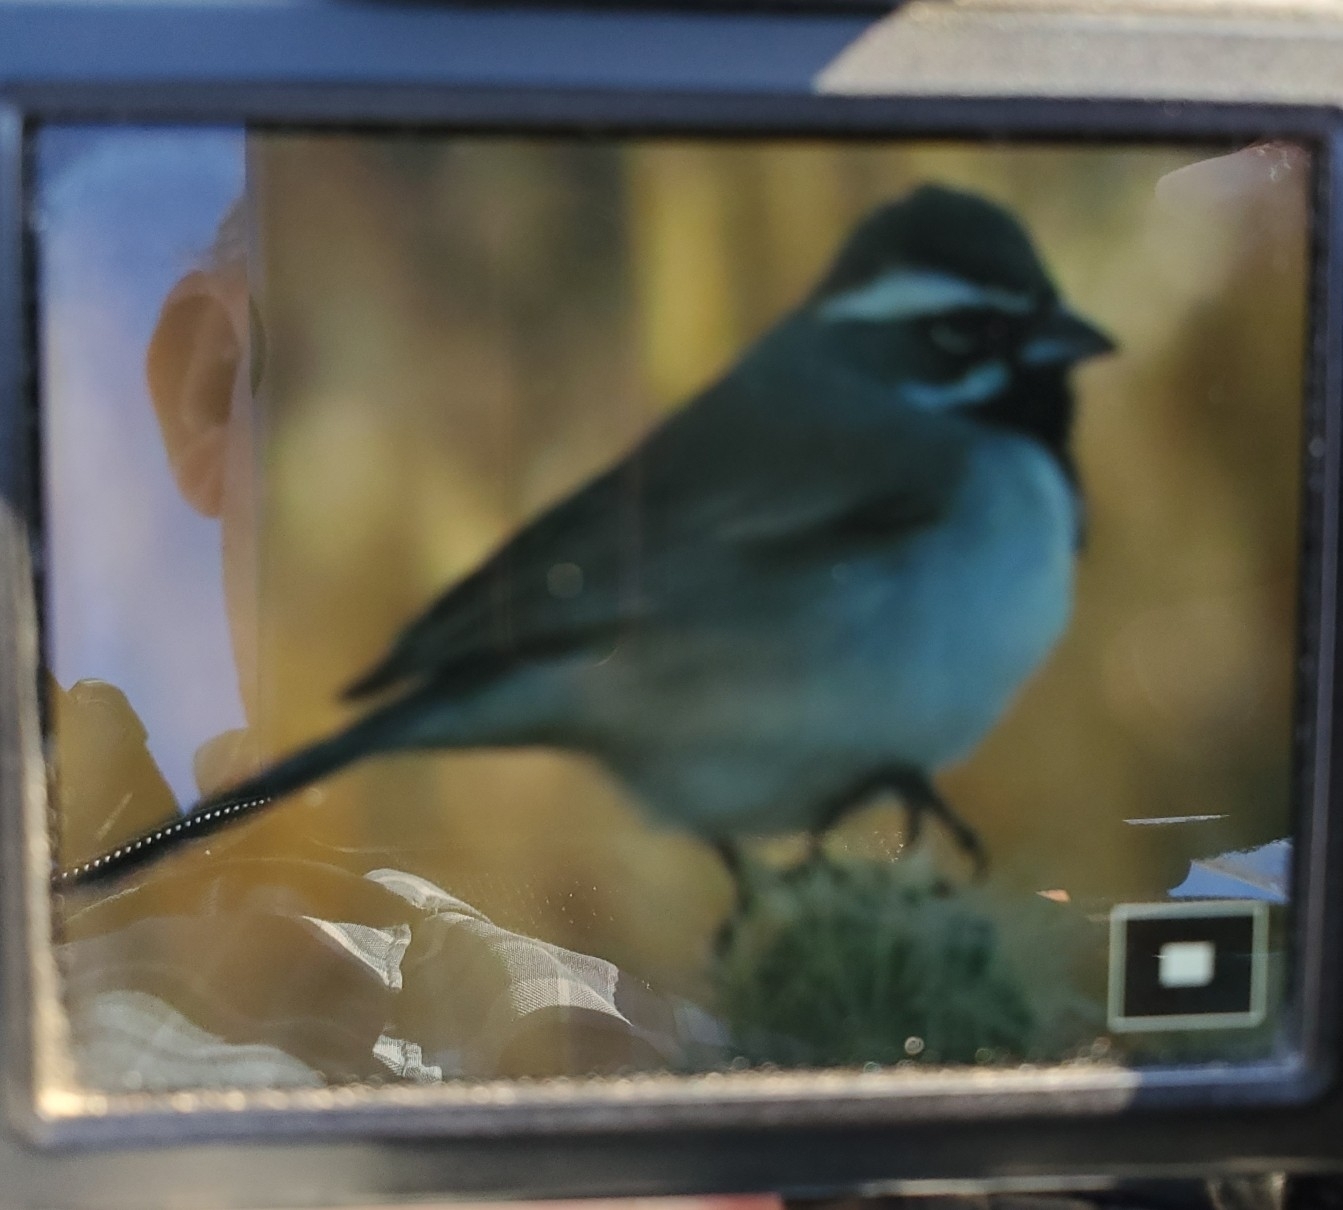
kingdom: Animalia
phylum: Chordata
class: Aves
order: Passeriformes
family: Passerellidae
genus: Amphispiza
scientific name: Amphispiza bilineata
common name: Black-throated sparrow
